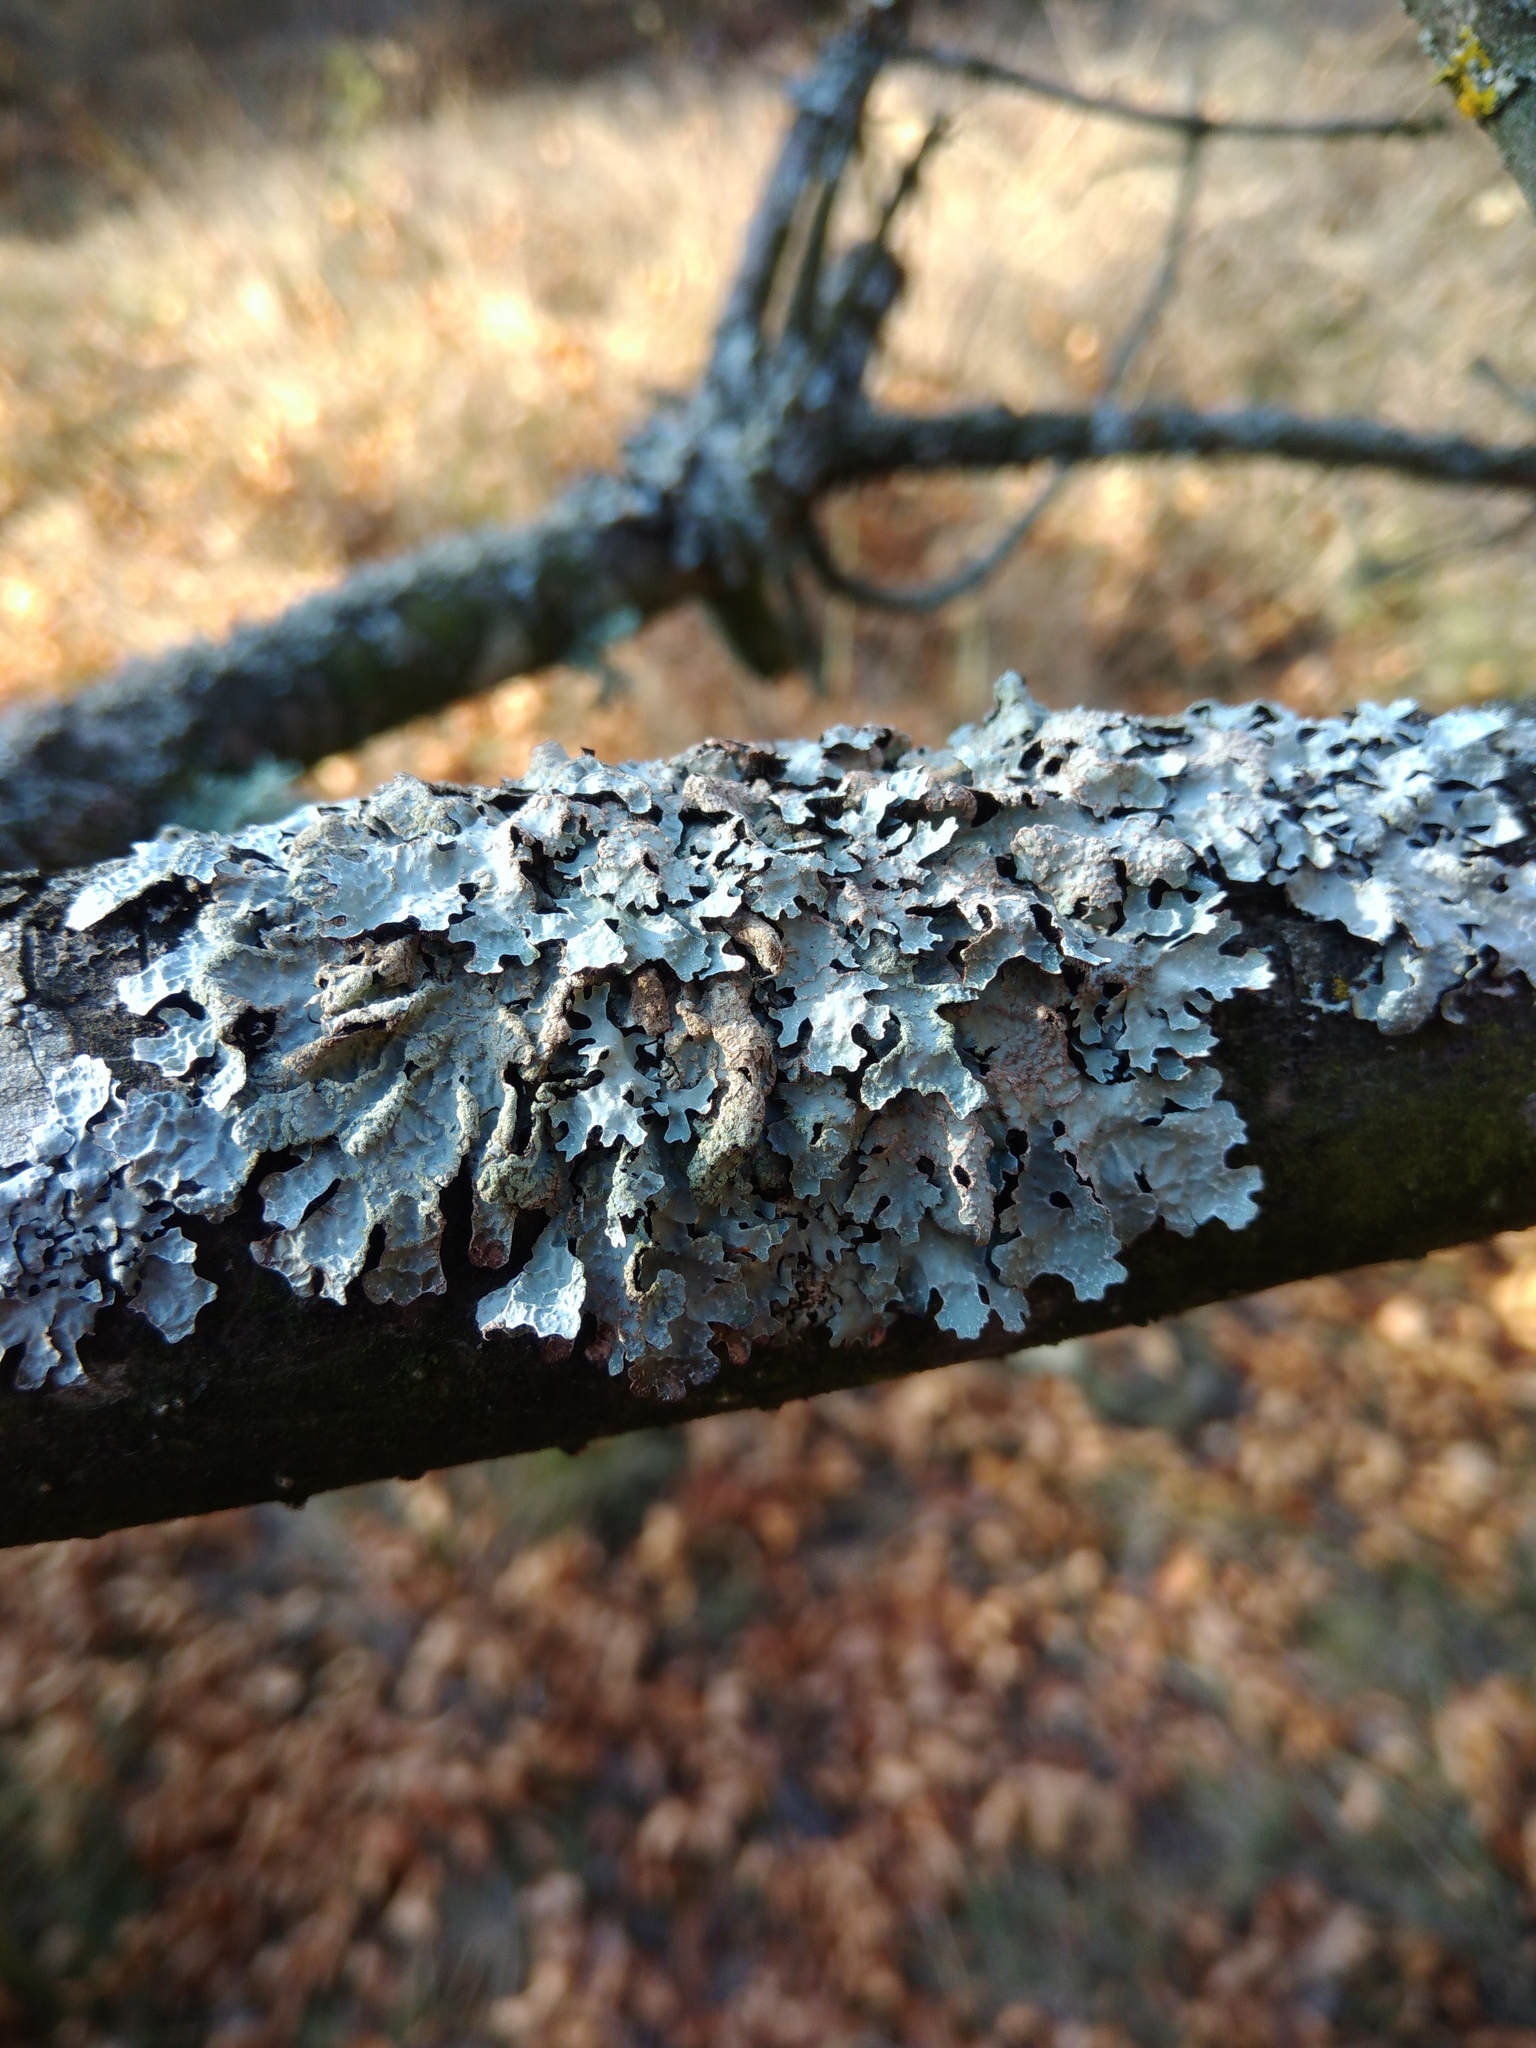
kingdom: Fungi
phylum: Ascomycota
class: Lecanoromycetes
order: Lecanorales
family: Parmeliaceae
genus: Parmelia
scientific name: Parmelia sulcata
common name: Netted shield lichen
